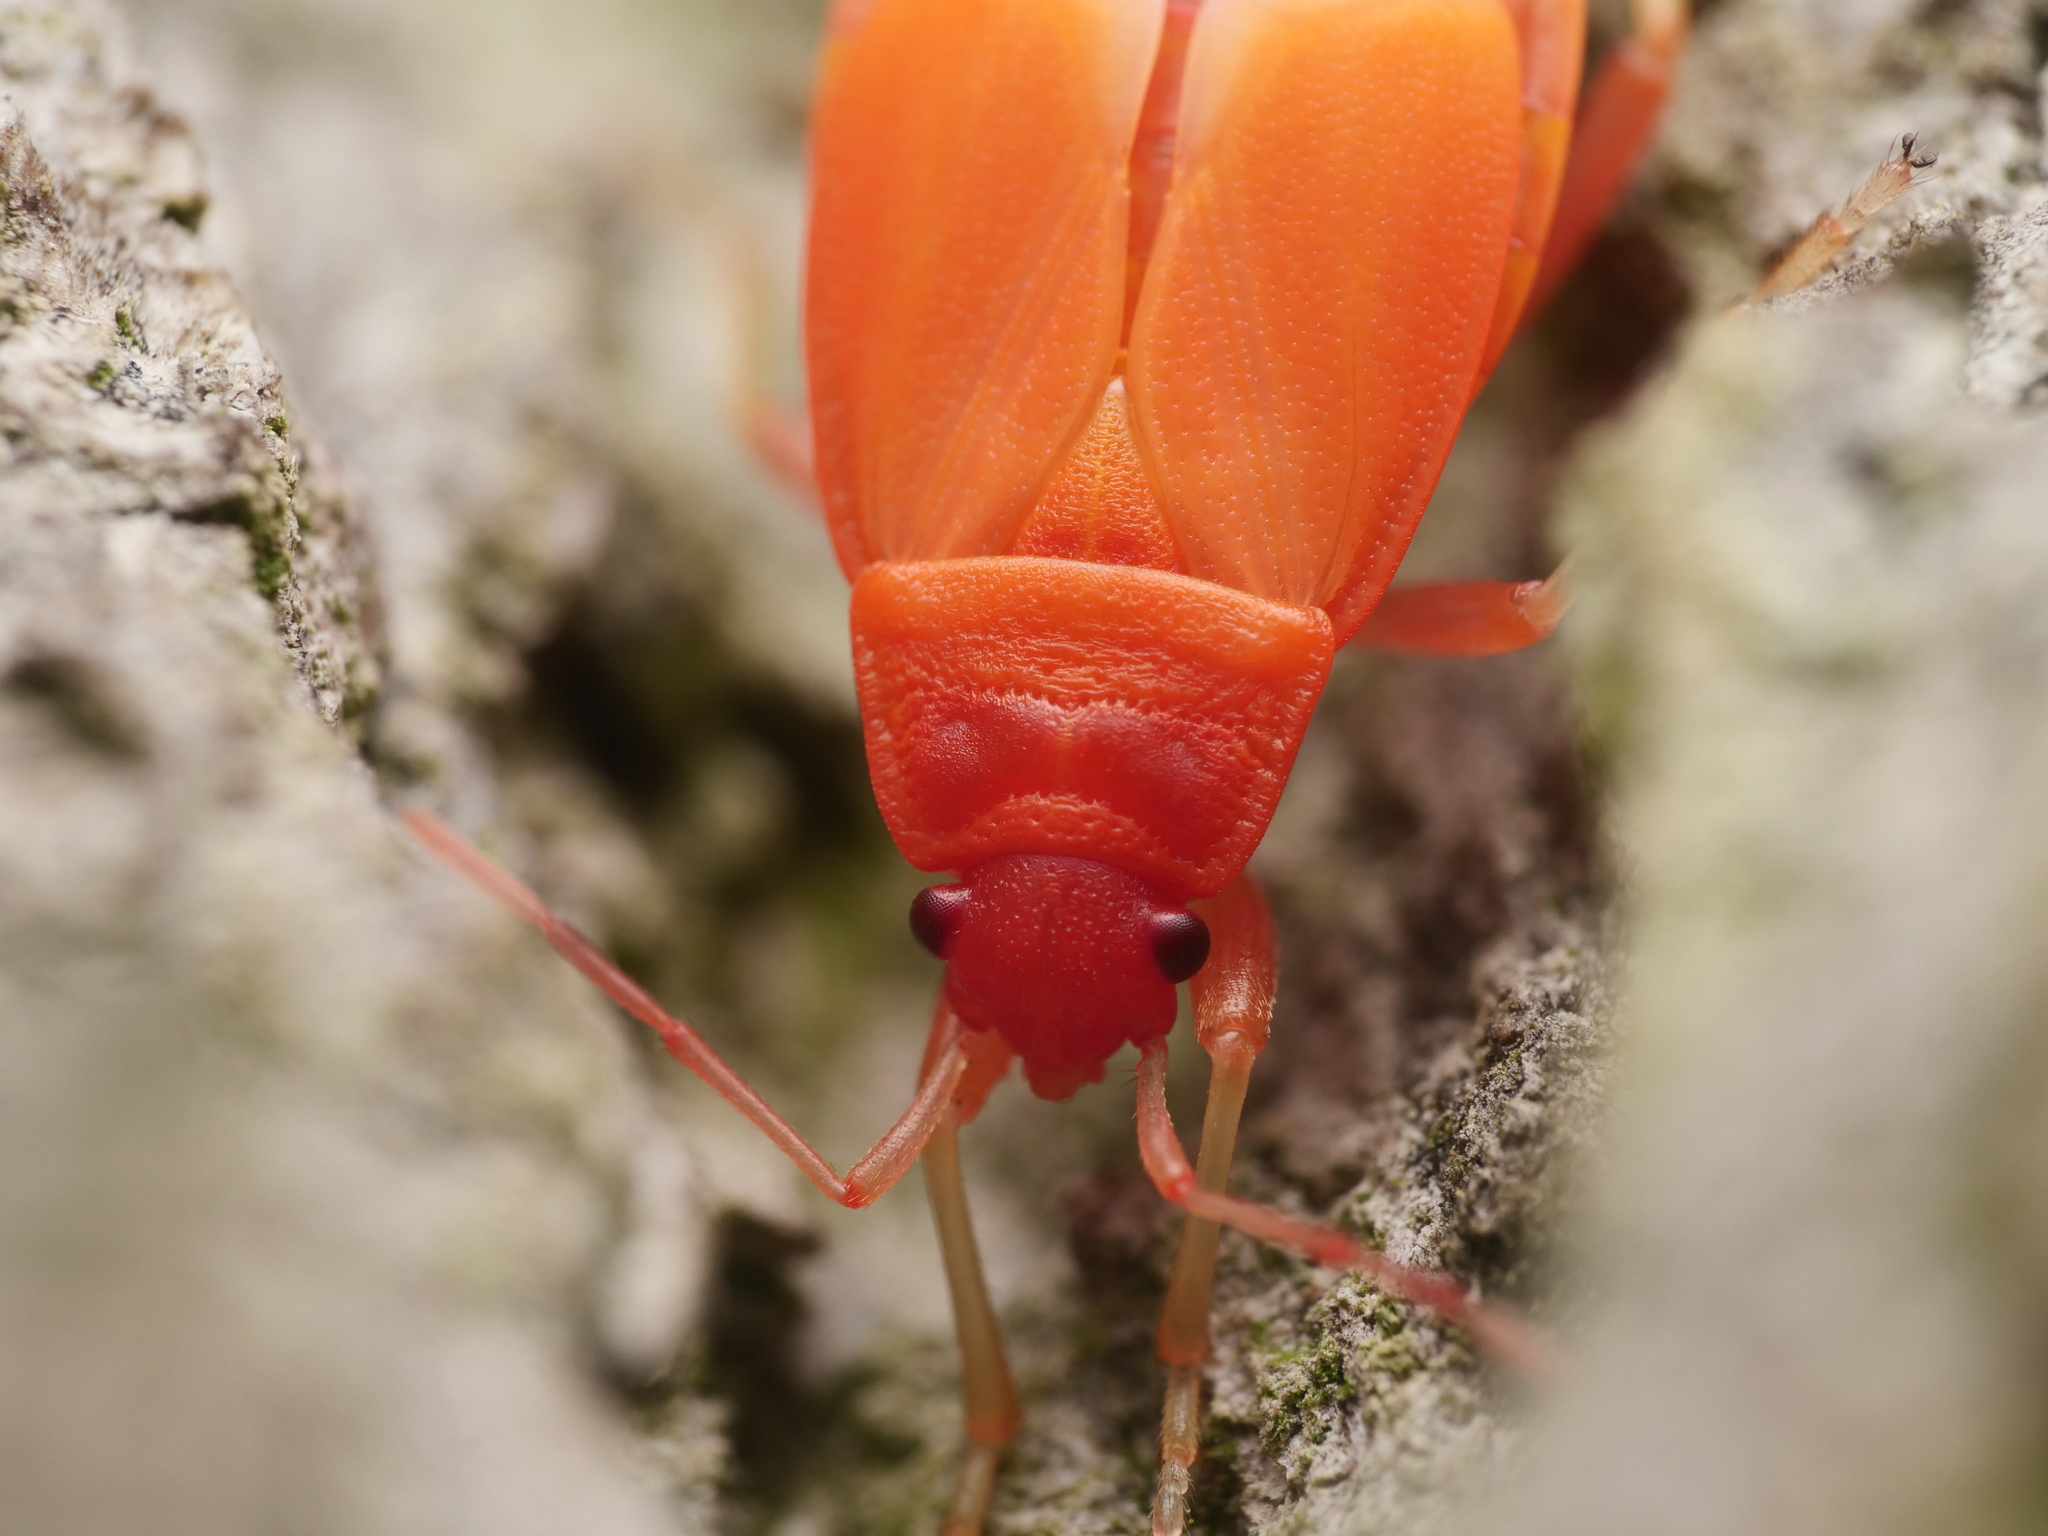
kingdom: Animalia
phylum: Arthropoda
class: Insecta
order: Hemiptera
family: Pyrrhocoridae
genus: Pyrrhocoris
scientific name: Pyrrhocoris apterus
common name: Firebug
